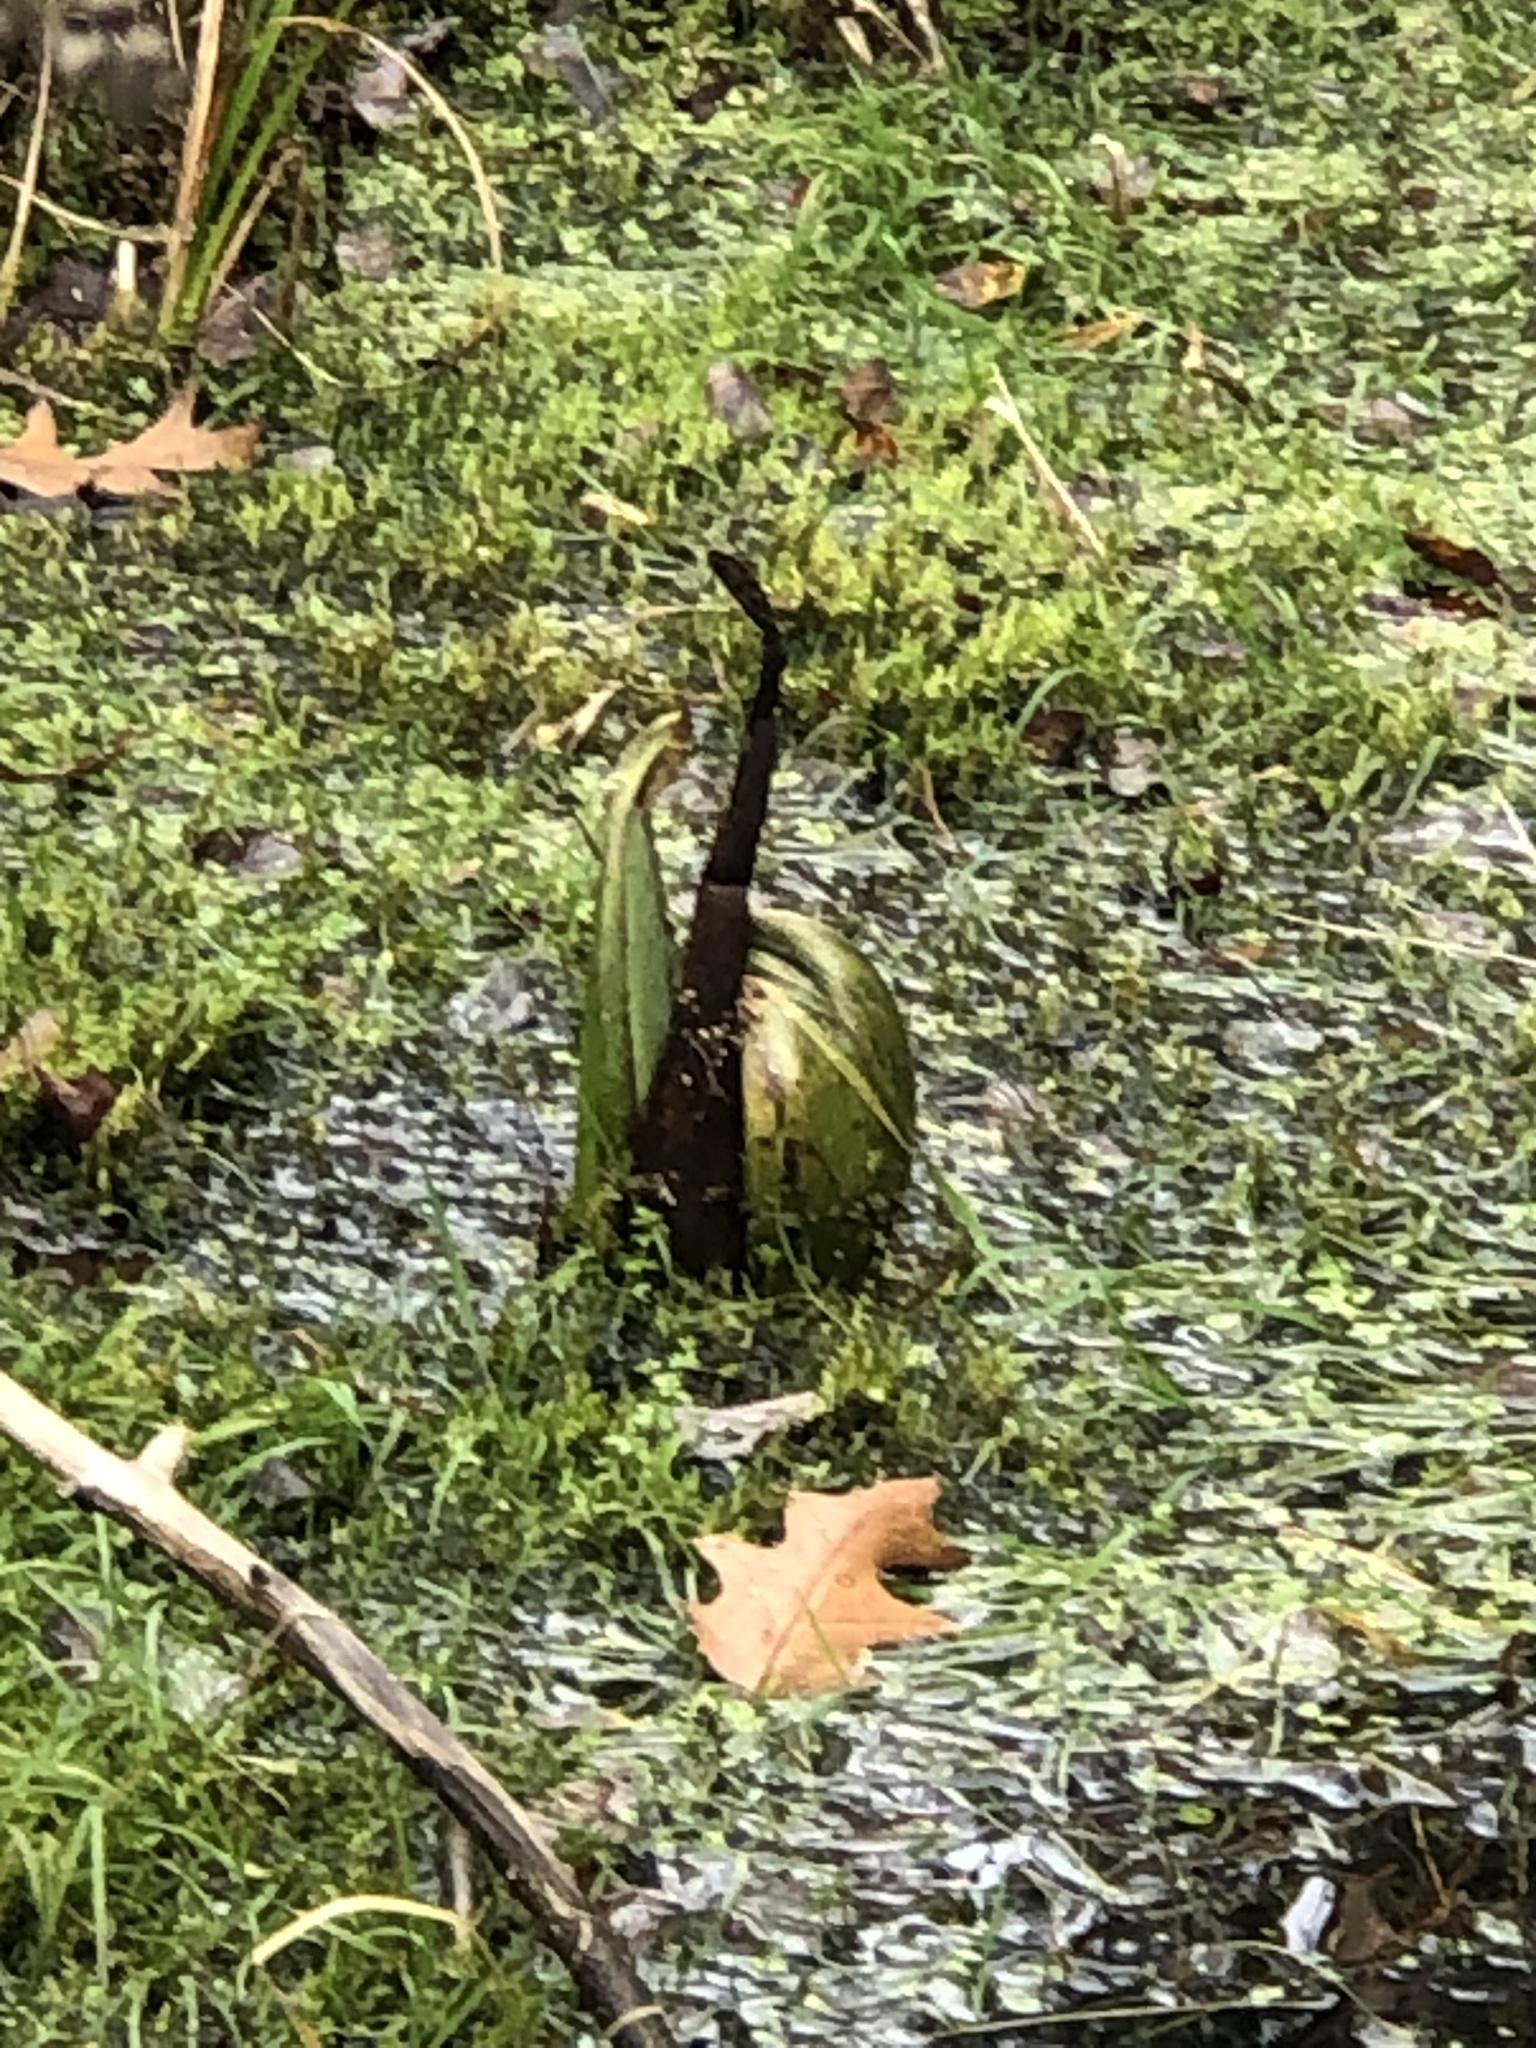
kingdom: Plantae
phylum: Tracheophyta
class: Liliopsida
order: Alismatales
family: Araceae
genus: Symplocarpus
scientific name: Symplocarpus foetidus
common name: Eastern skunk cabbage
